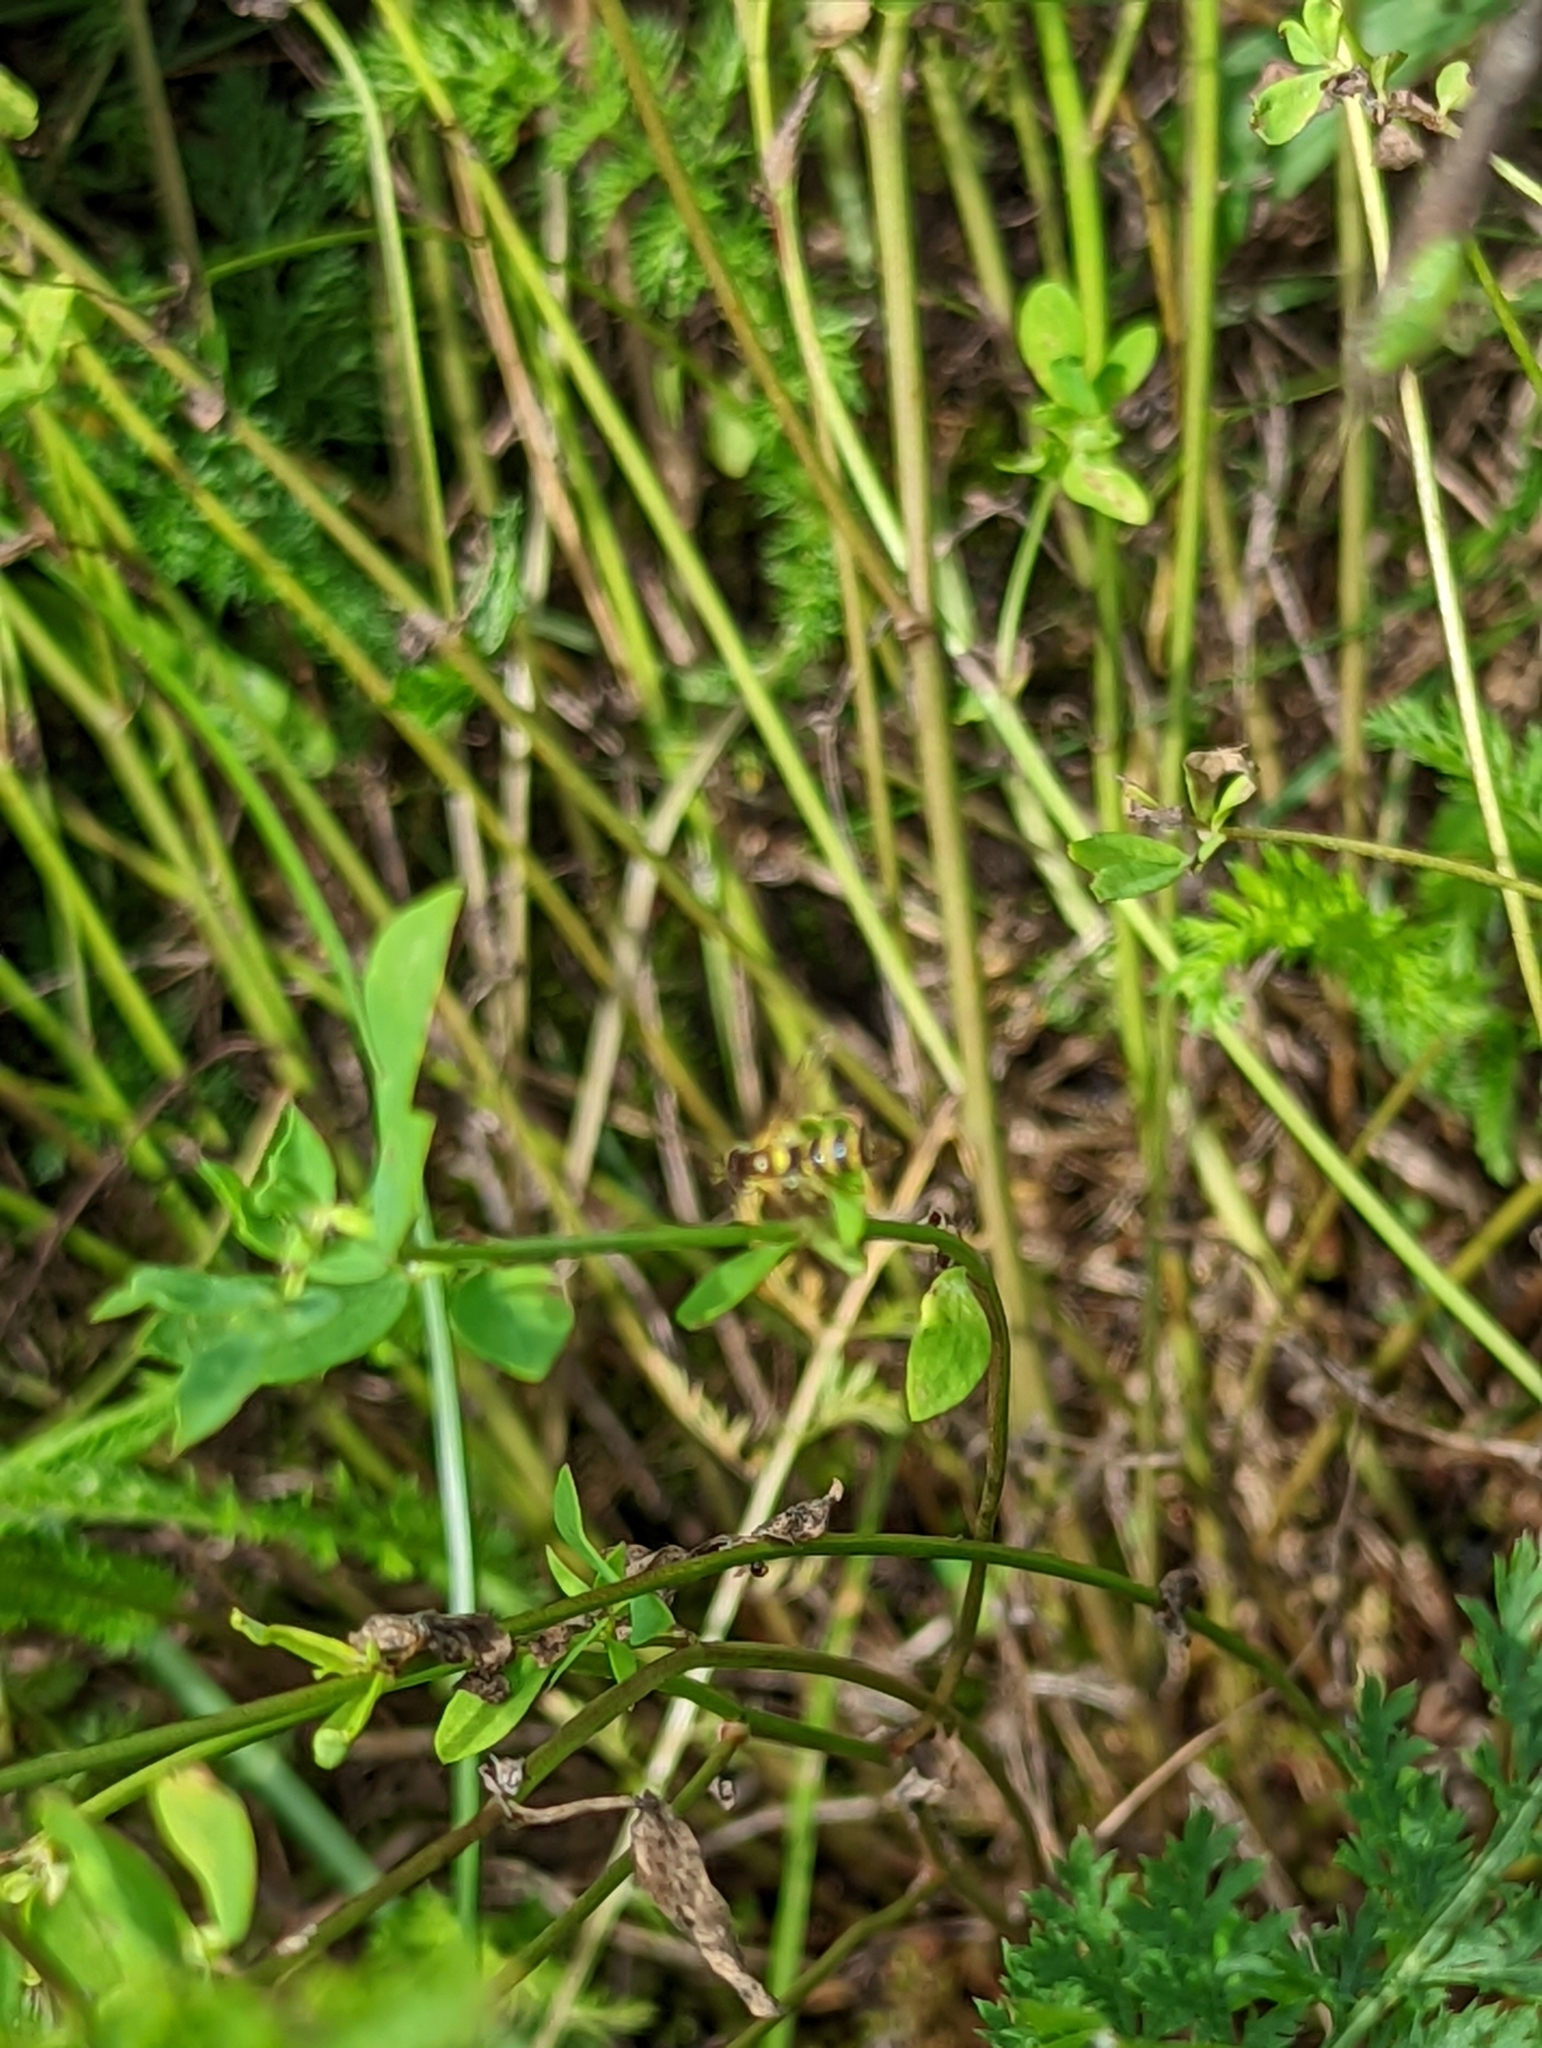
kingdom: Animalia
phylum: Arthropoda
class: Insecta
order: Diptera
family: Syrphidae
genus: Sphaerophoria
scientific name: Sphaerophoria
